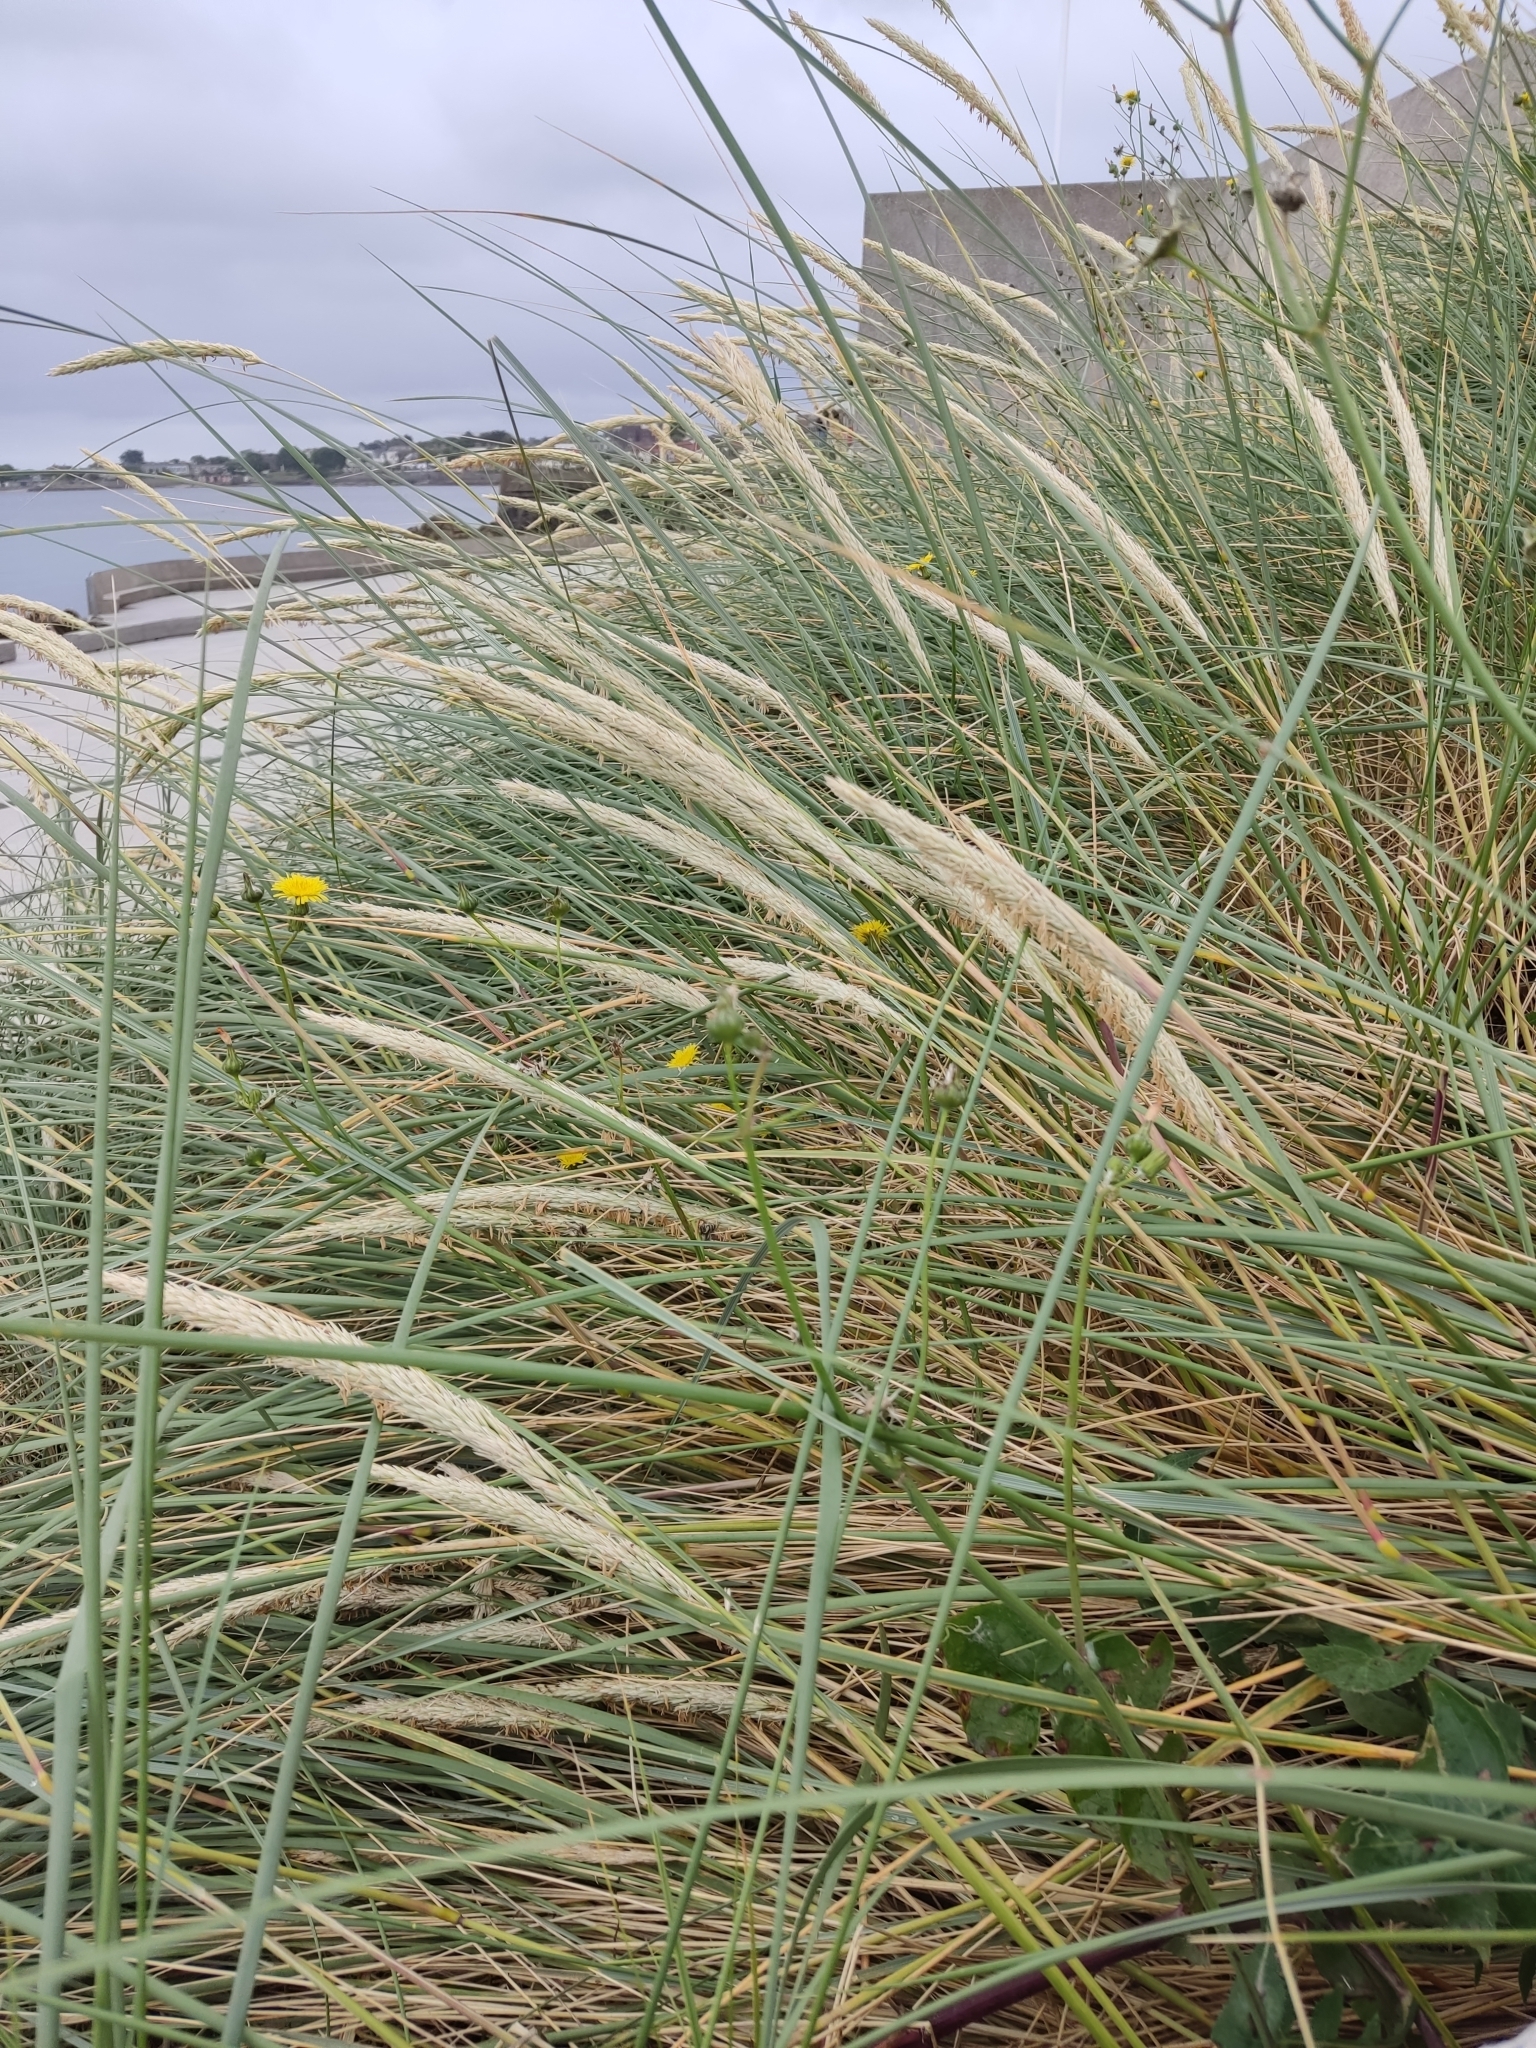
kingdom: Plantae
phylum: Tracheophyta
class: Liliopsida
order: Poales
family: Poaceae
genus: Calamagrostis
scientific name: Calamagrostis arenaria
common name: European beachgrass
